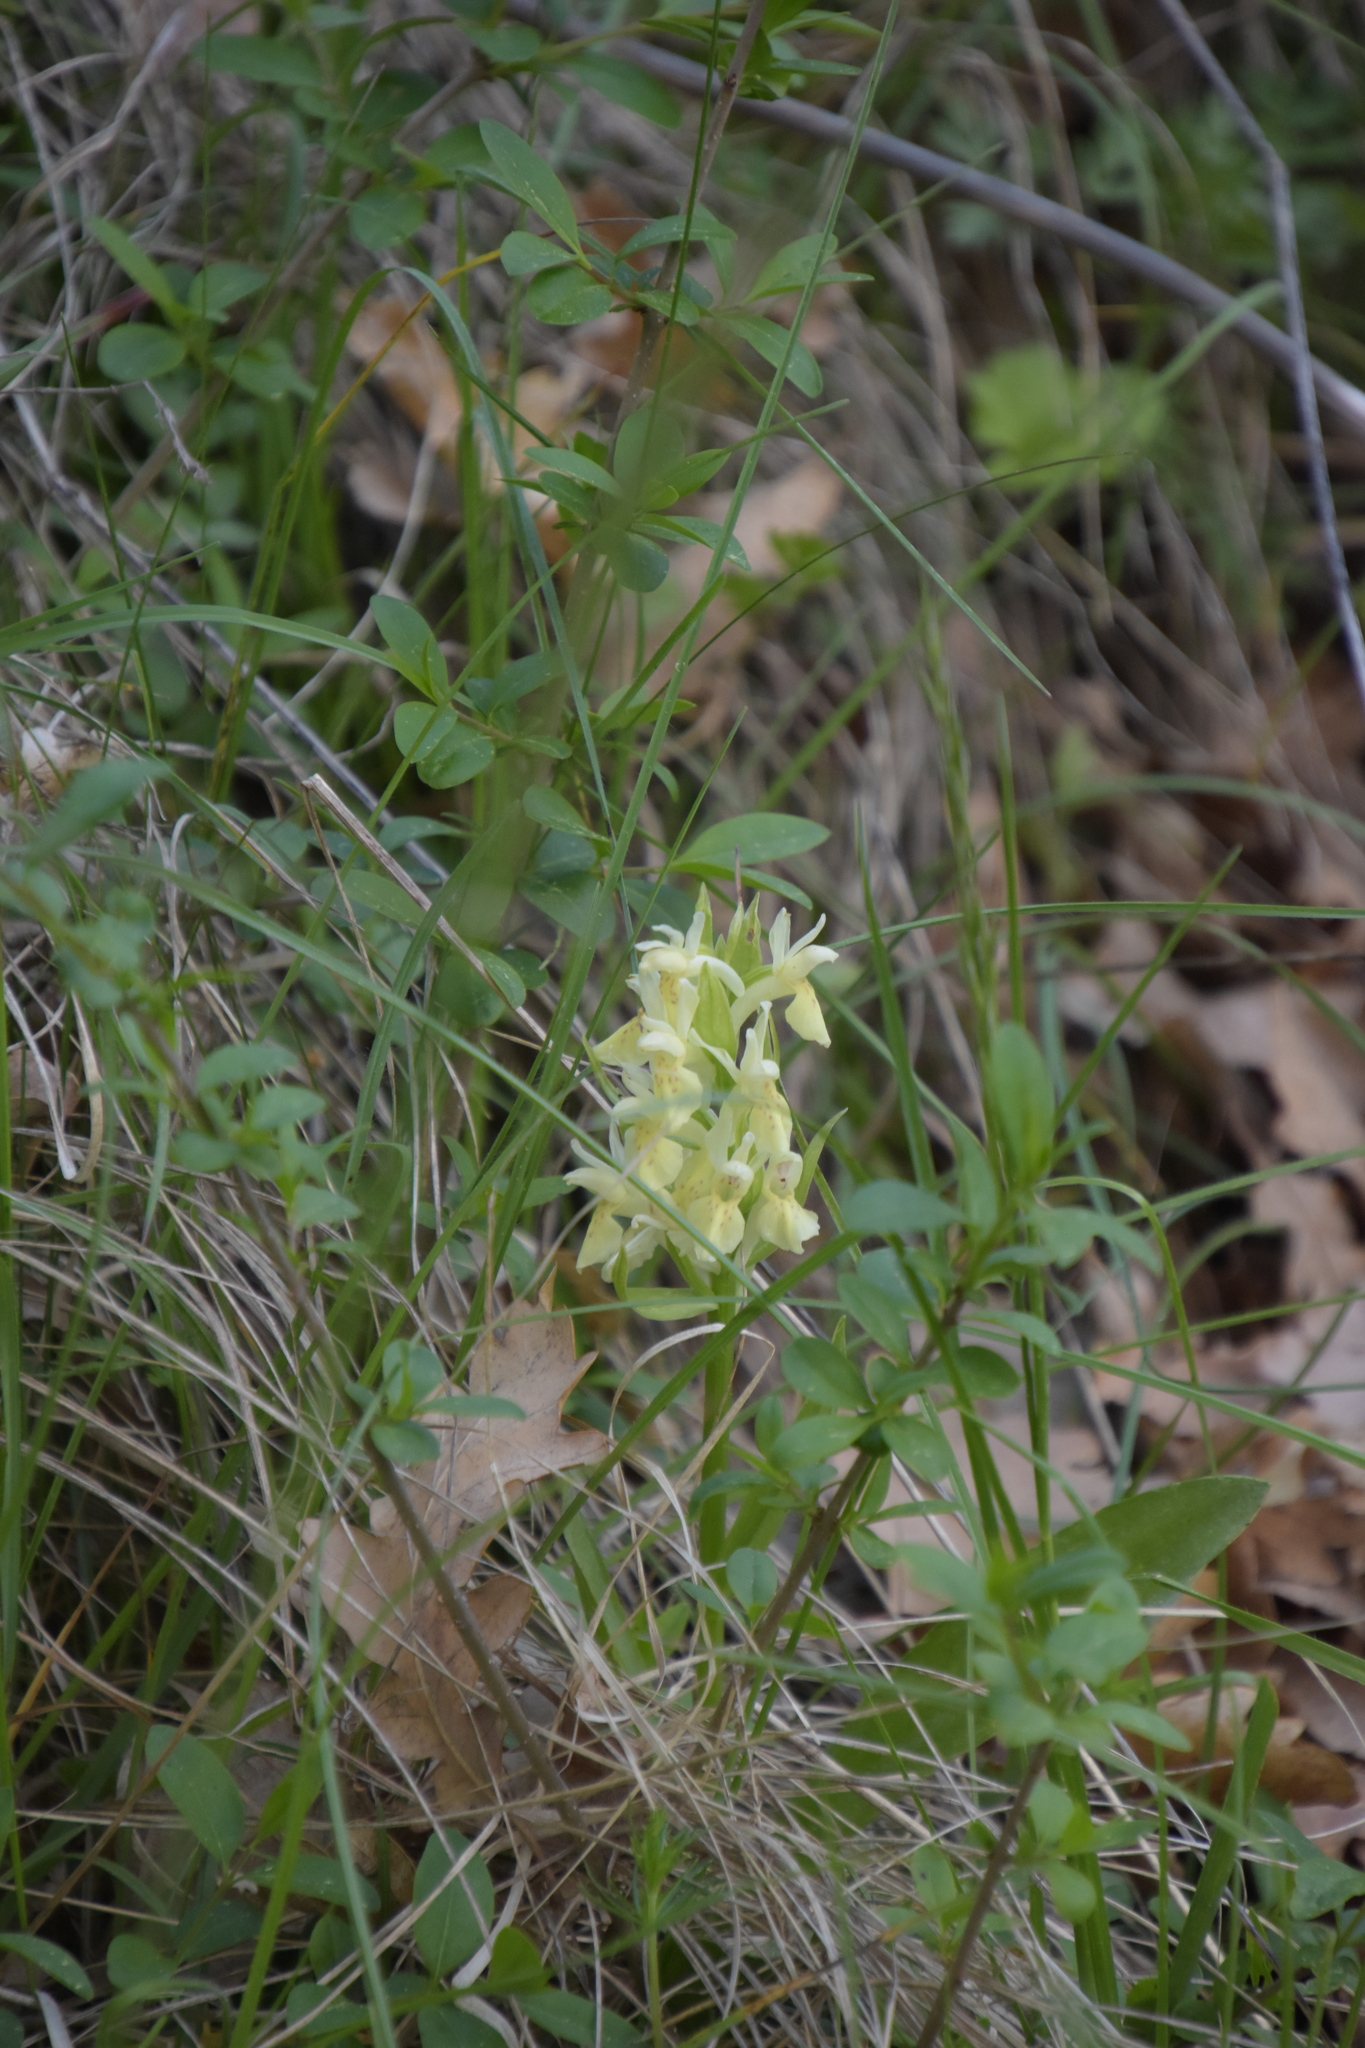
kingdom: Plantae
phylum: Tracheophyta
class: Liliopsida
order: Asparagales
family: Orchidaceae
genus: Dactylorhiza
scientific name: Dactylorhiza sambucina
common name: Elder-flowered orchid
